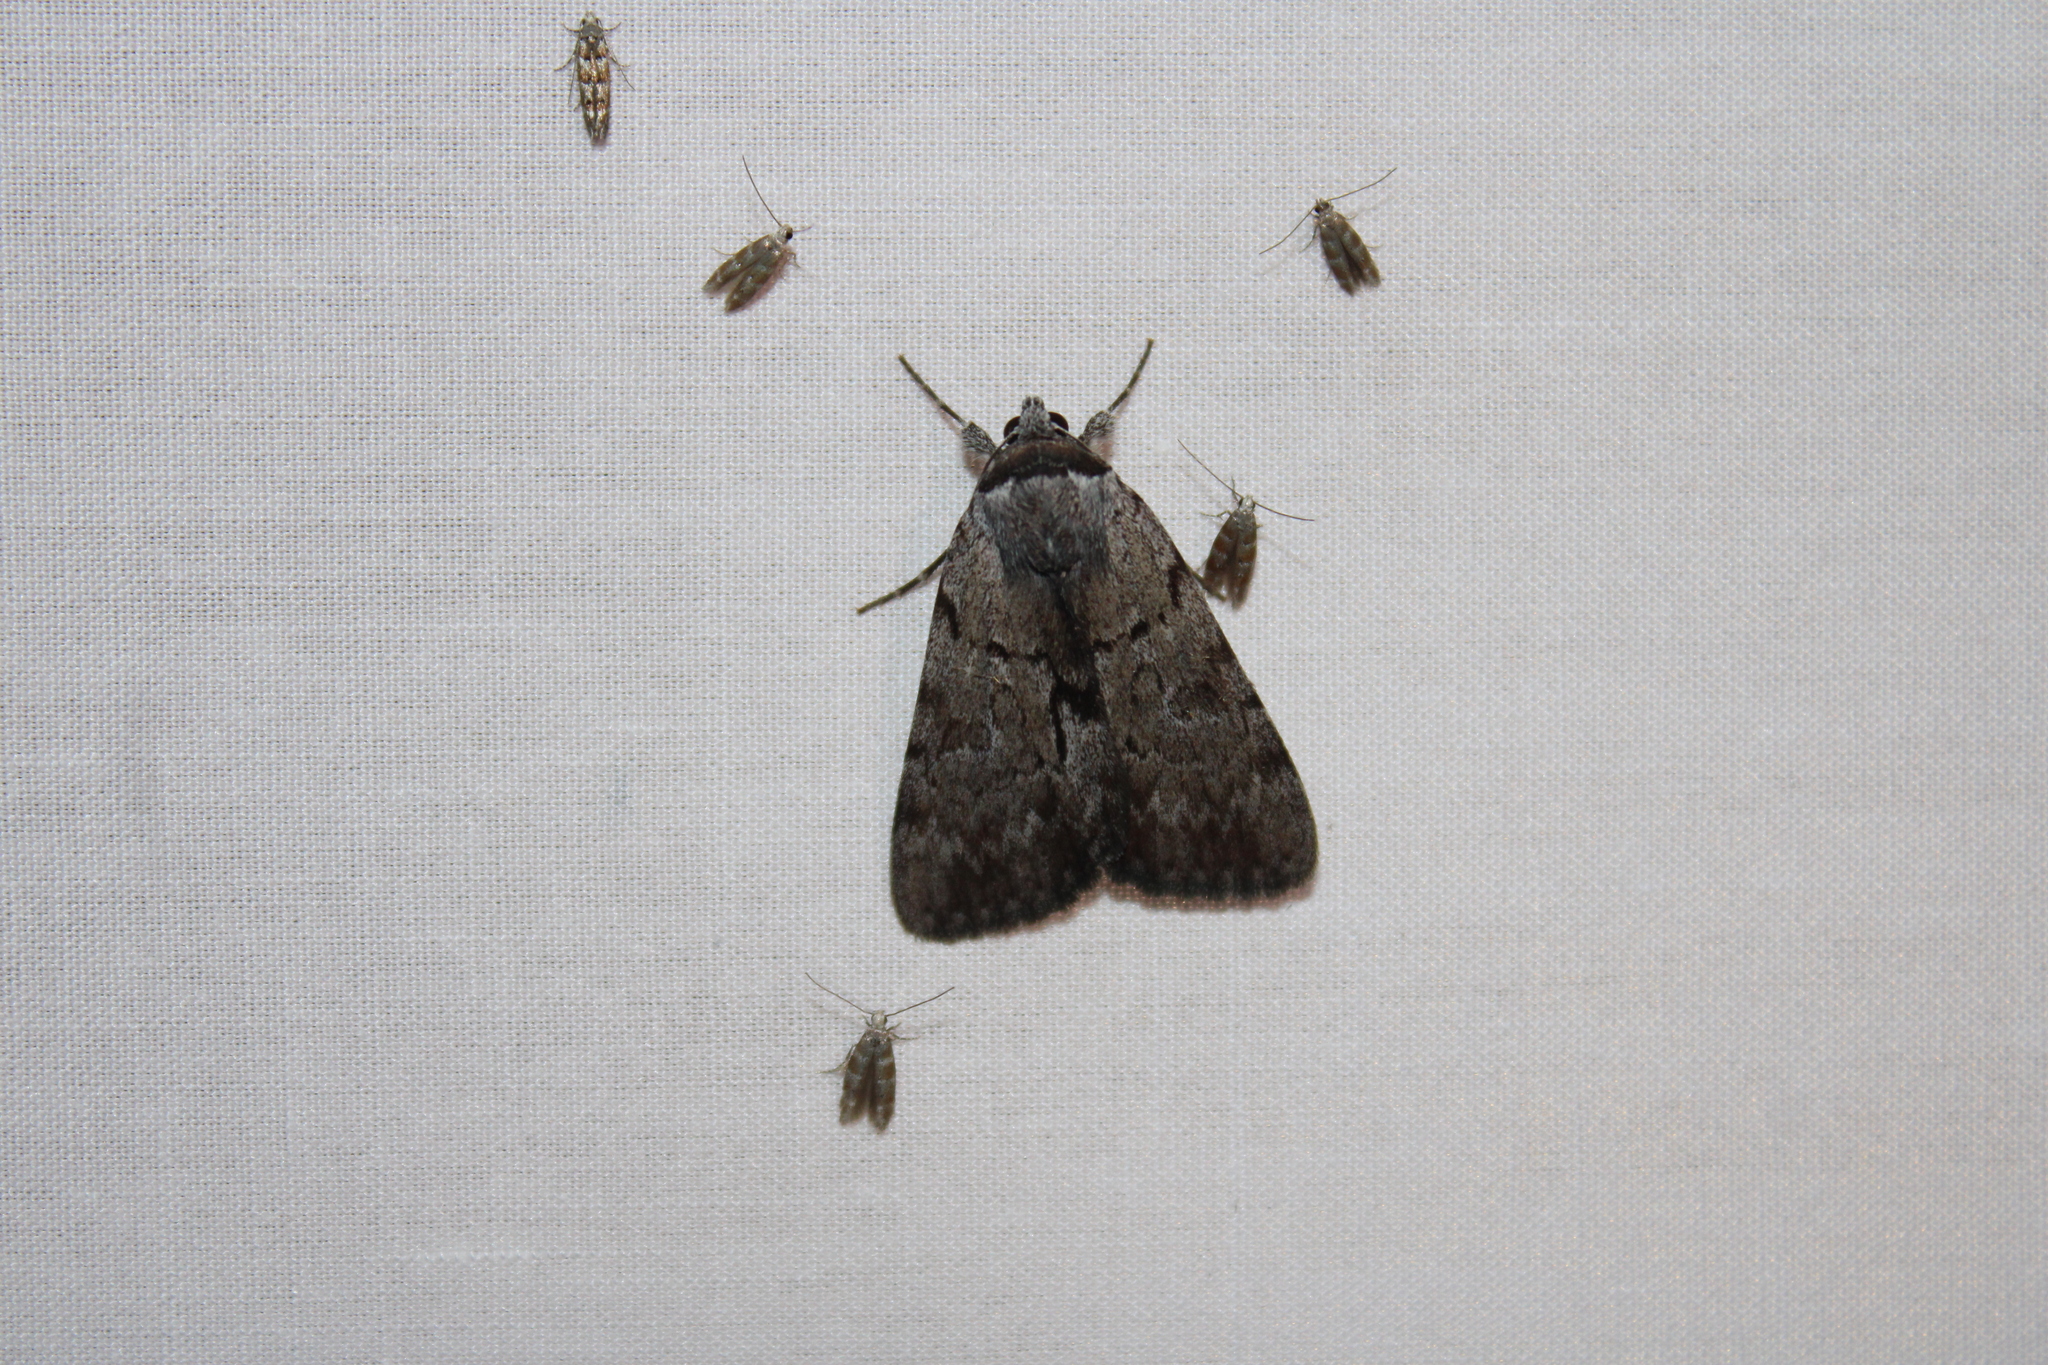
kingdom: Animalia
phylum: Arthropoda
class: Insecta
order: Lepidoptera
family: Erebidae
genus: Catocala
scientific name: Catocala sordida
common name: Sordid underwing
